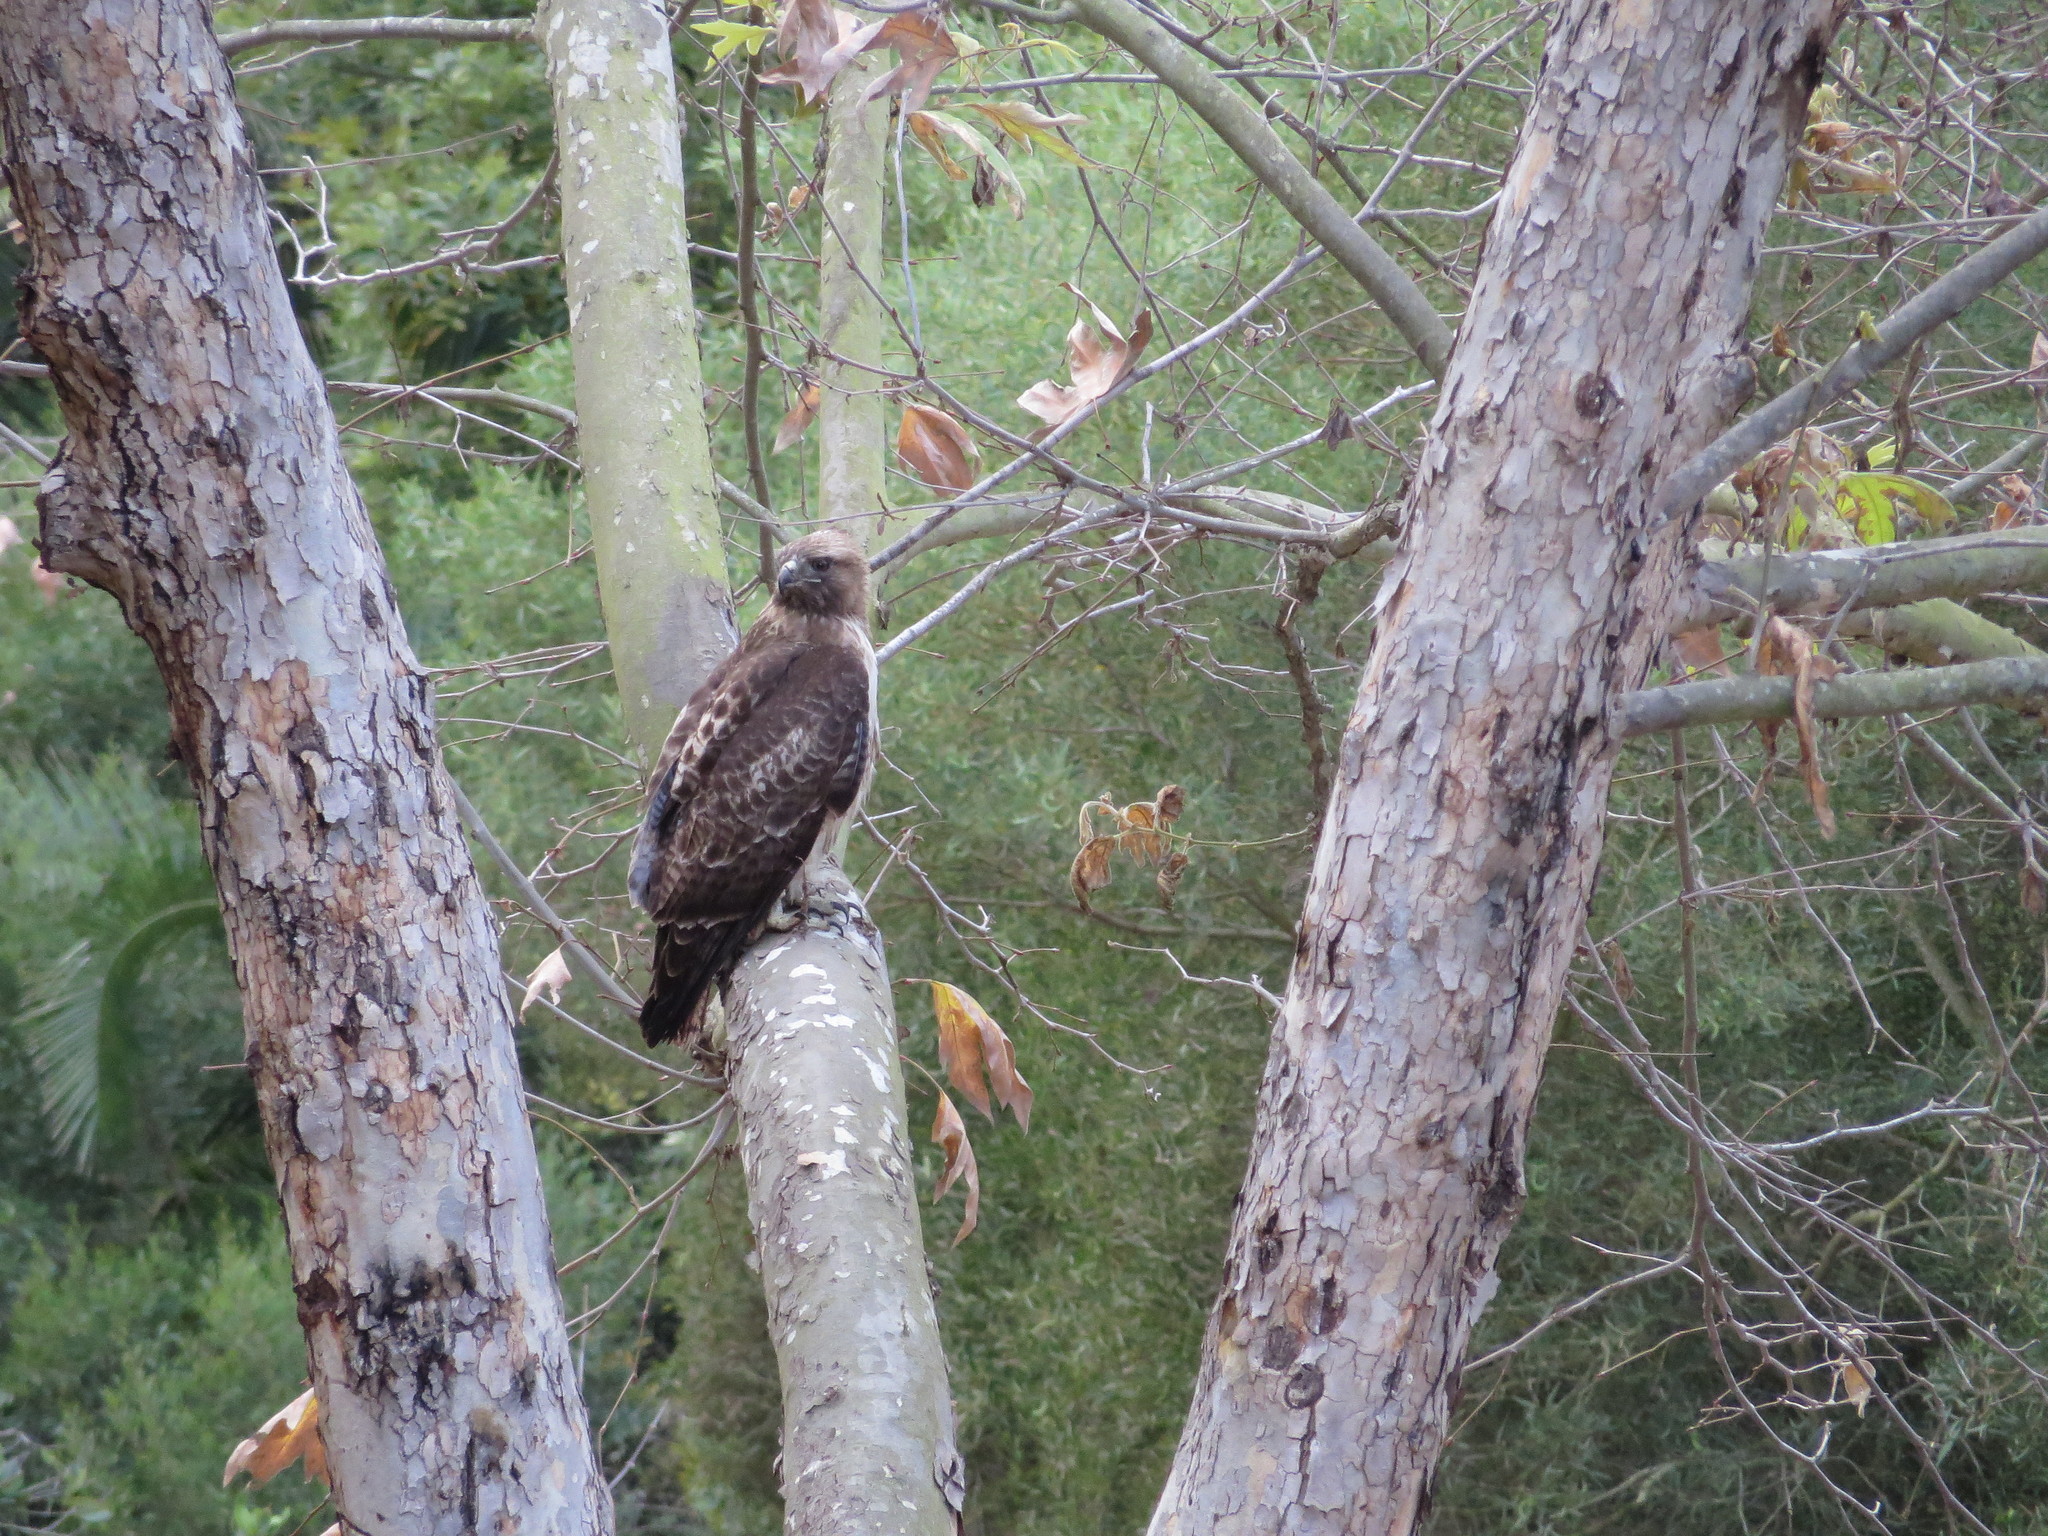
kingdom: Animalia
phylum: Chordata
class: Aves
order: Accipitriformes
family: Accipitridae
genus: Buteo
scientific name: Buteo jamaicensis
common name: Red-tailed hawk
